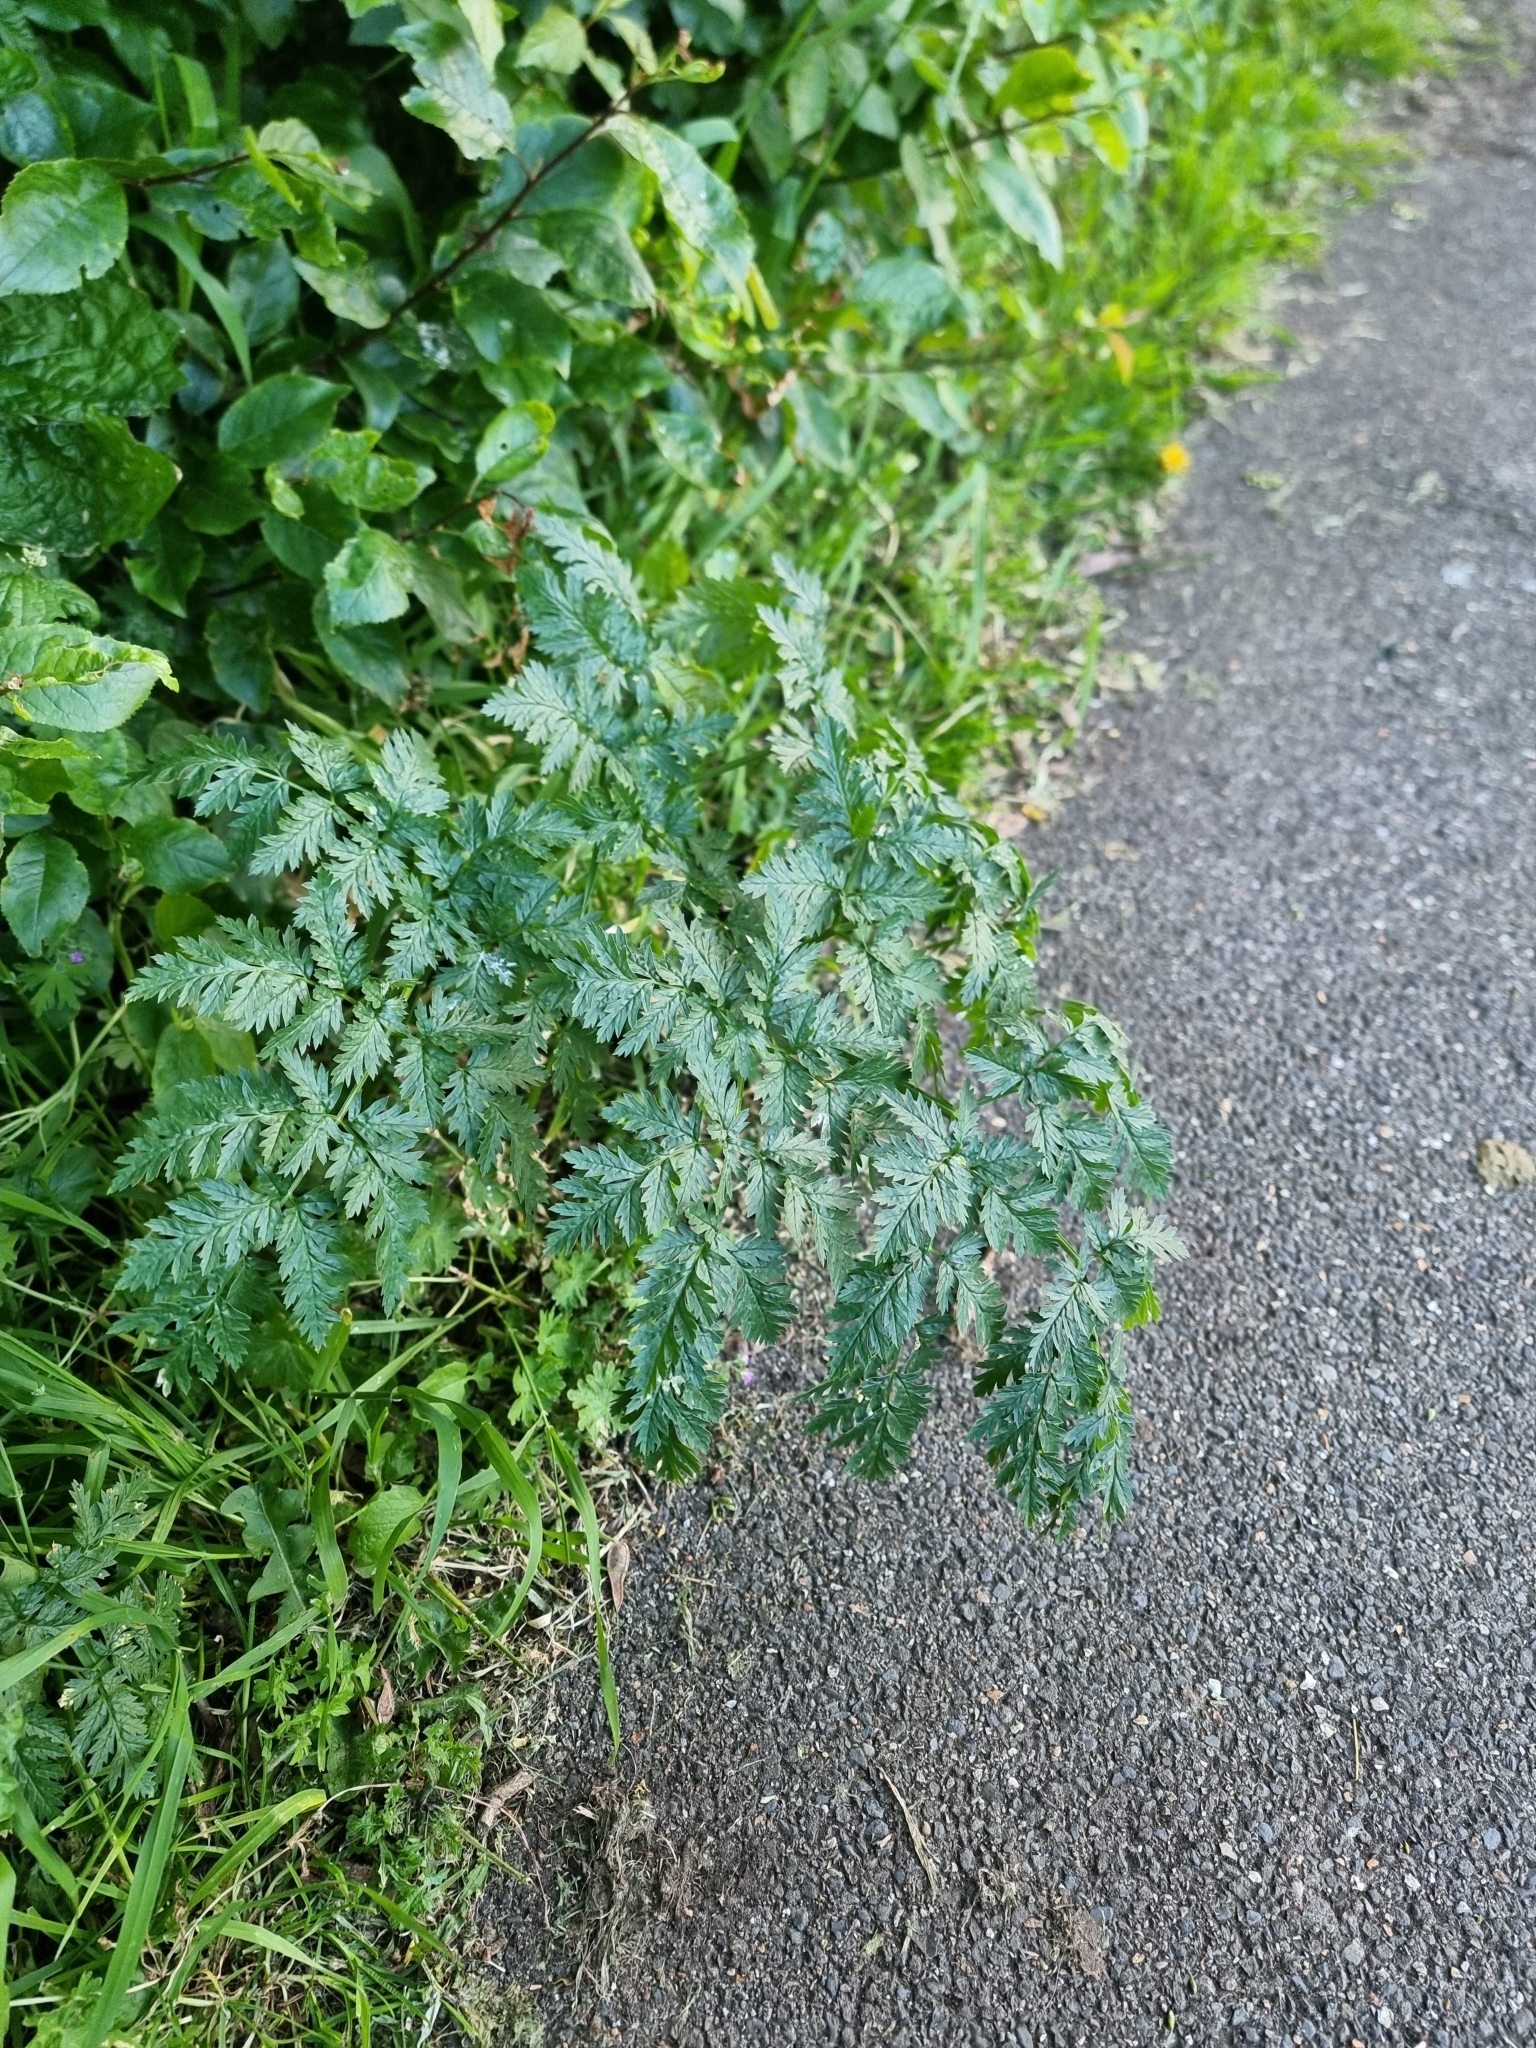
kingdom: Plantae
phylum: Tracheophyta
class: Magnoliopsida
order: Apiales
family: Apiaceae
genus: Conium
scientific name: Conium maculatum
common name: Hemlock
